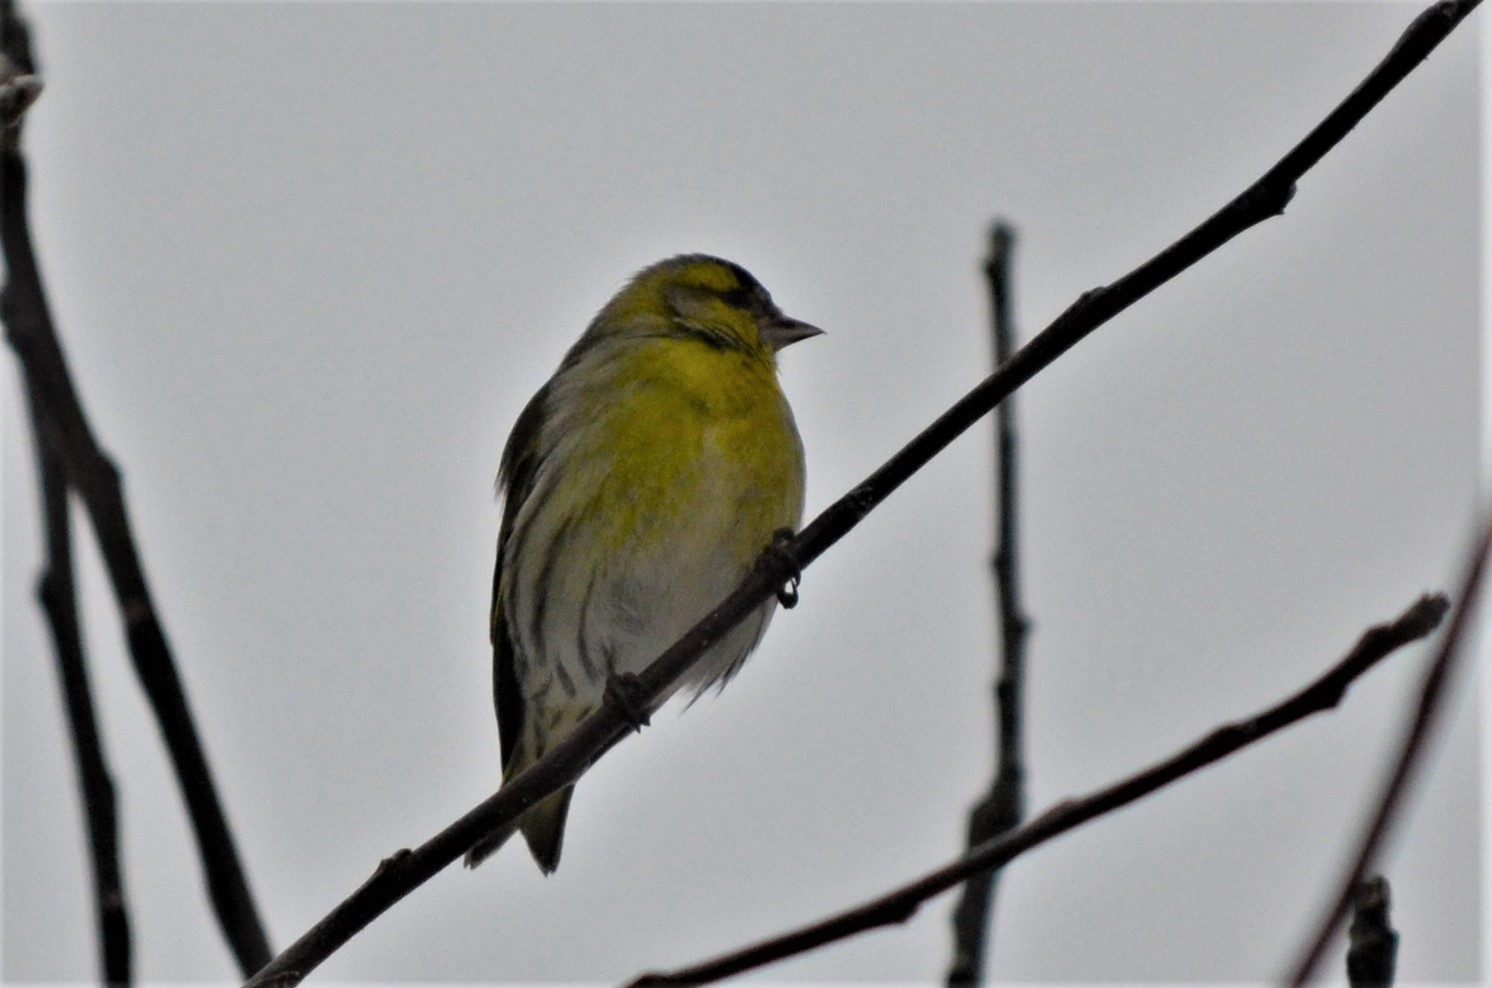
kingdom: Animalia
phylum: Chordata
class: Aves
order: Passeriformes
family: Fringillidae
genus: Spinus
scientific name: Spinus spinus
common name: Eurasian siskin
